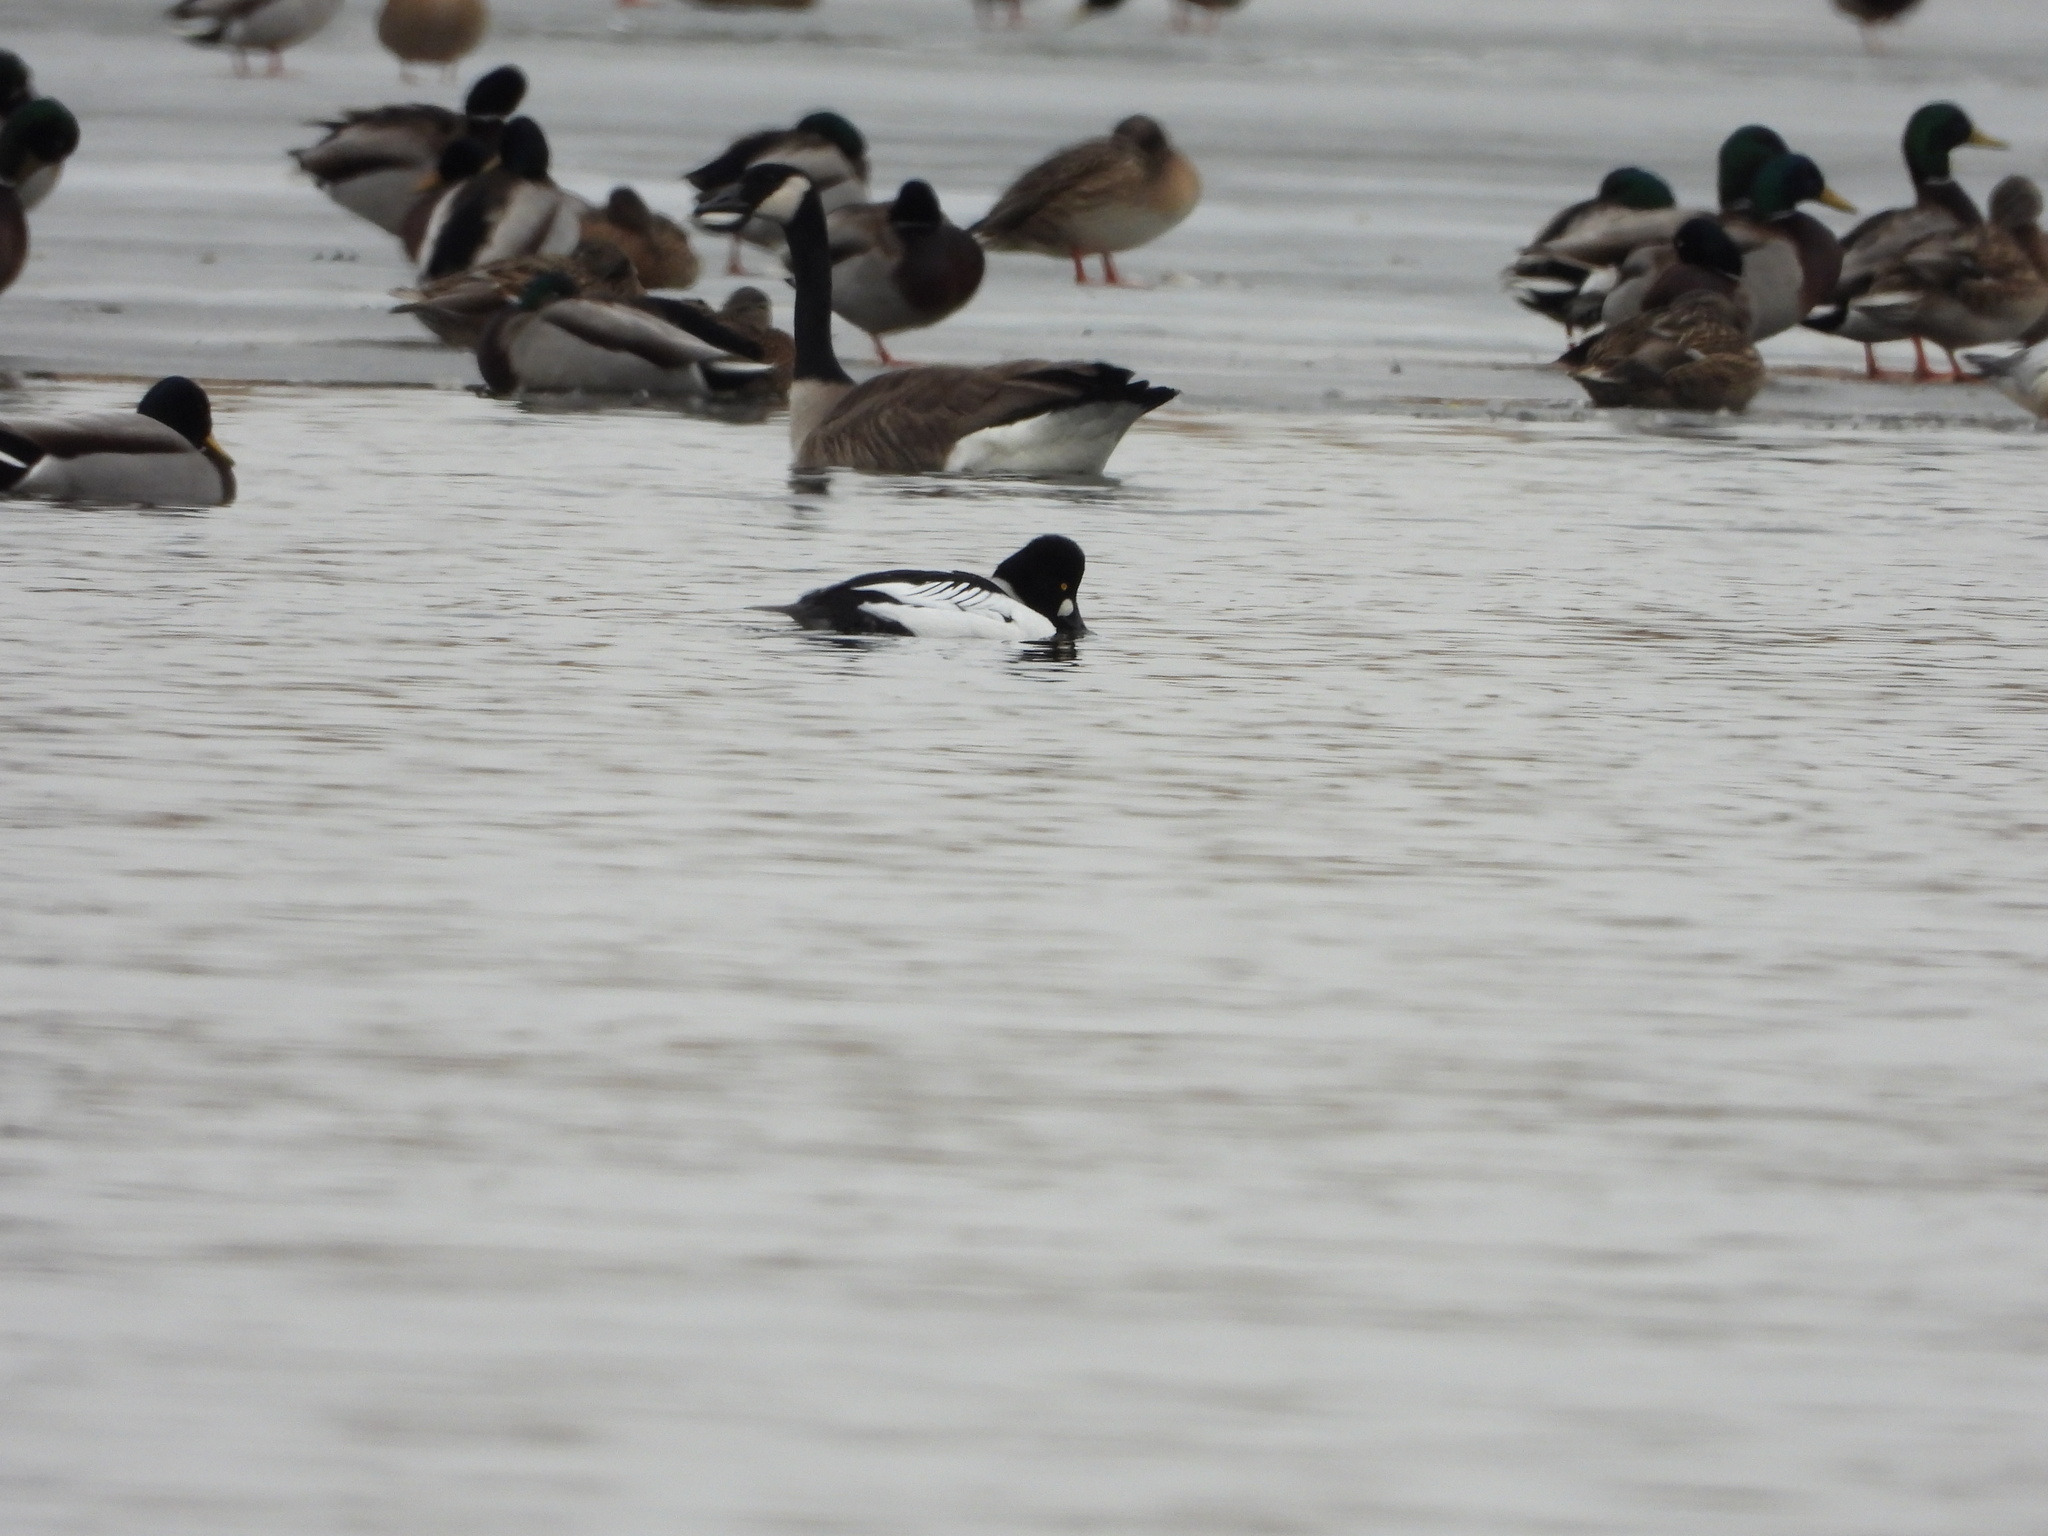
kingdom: Animalia
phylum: Chordata
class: Aves
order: Anseriformes
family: Anatidae
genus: Bucephala
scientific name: Bucephala clangula
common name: Common goldeneye
